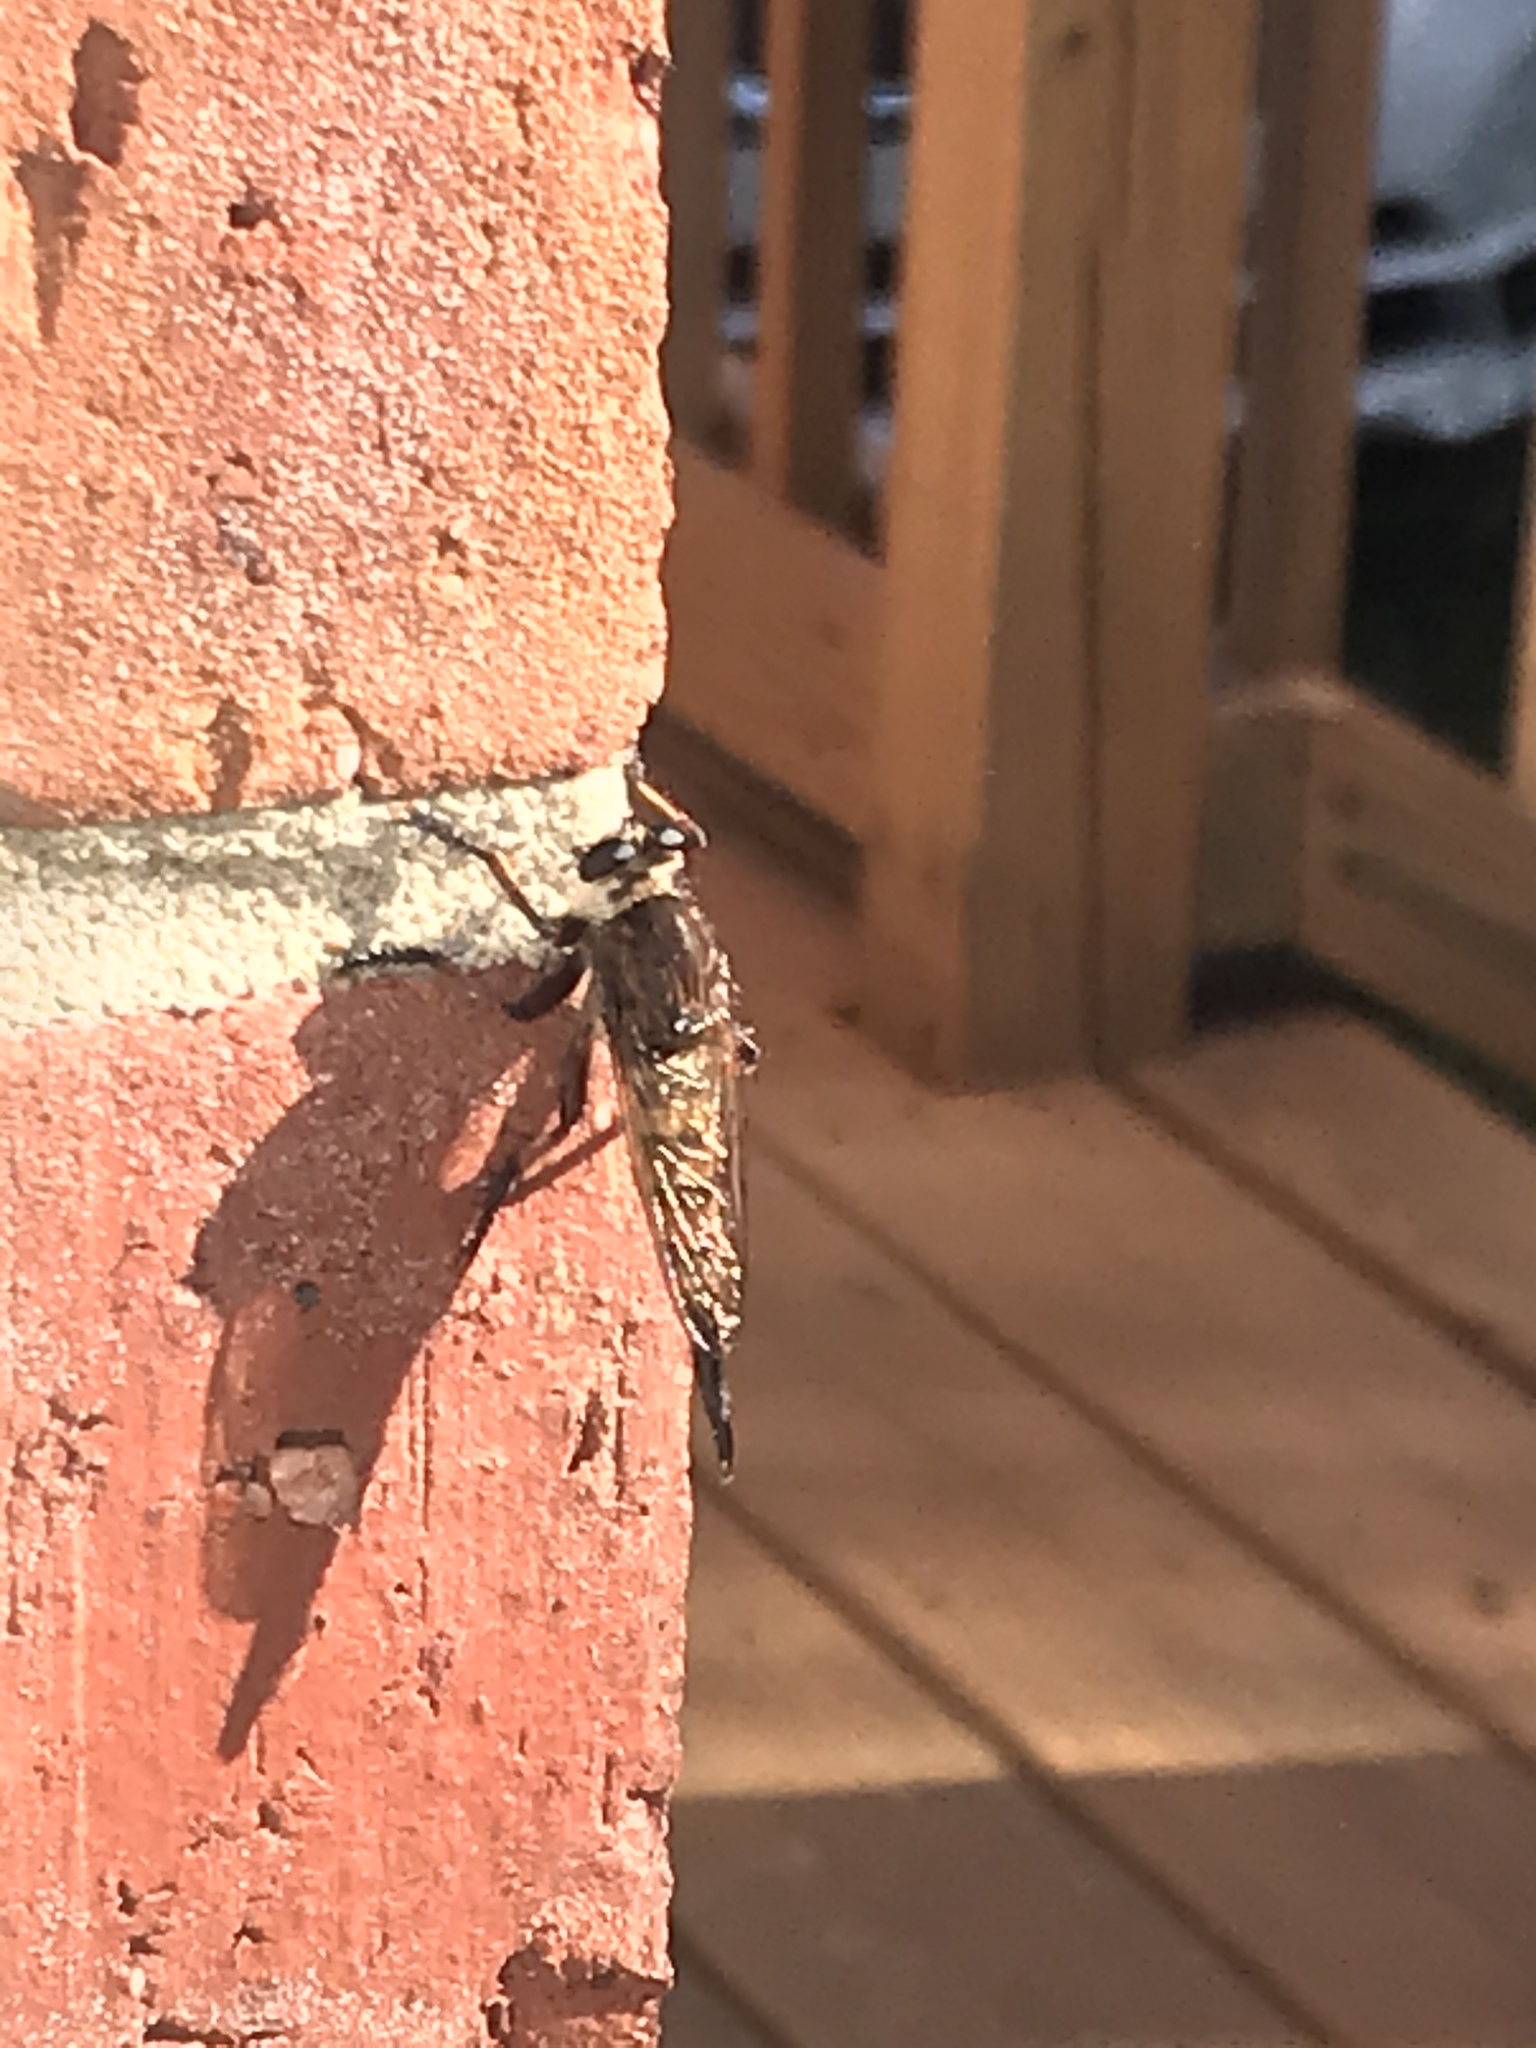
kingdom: Animalia
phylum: Arthropoda
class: Insecta
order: Diptera
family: Asilidae
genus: Promachus
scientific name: Promachus hinei
